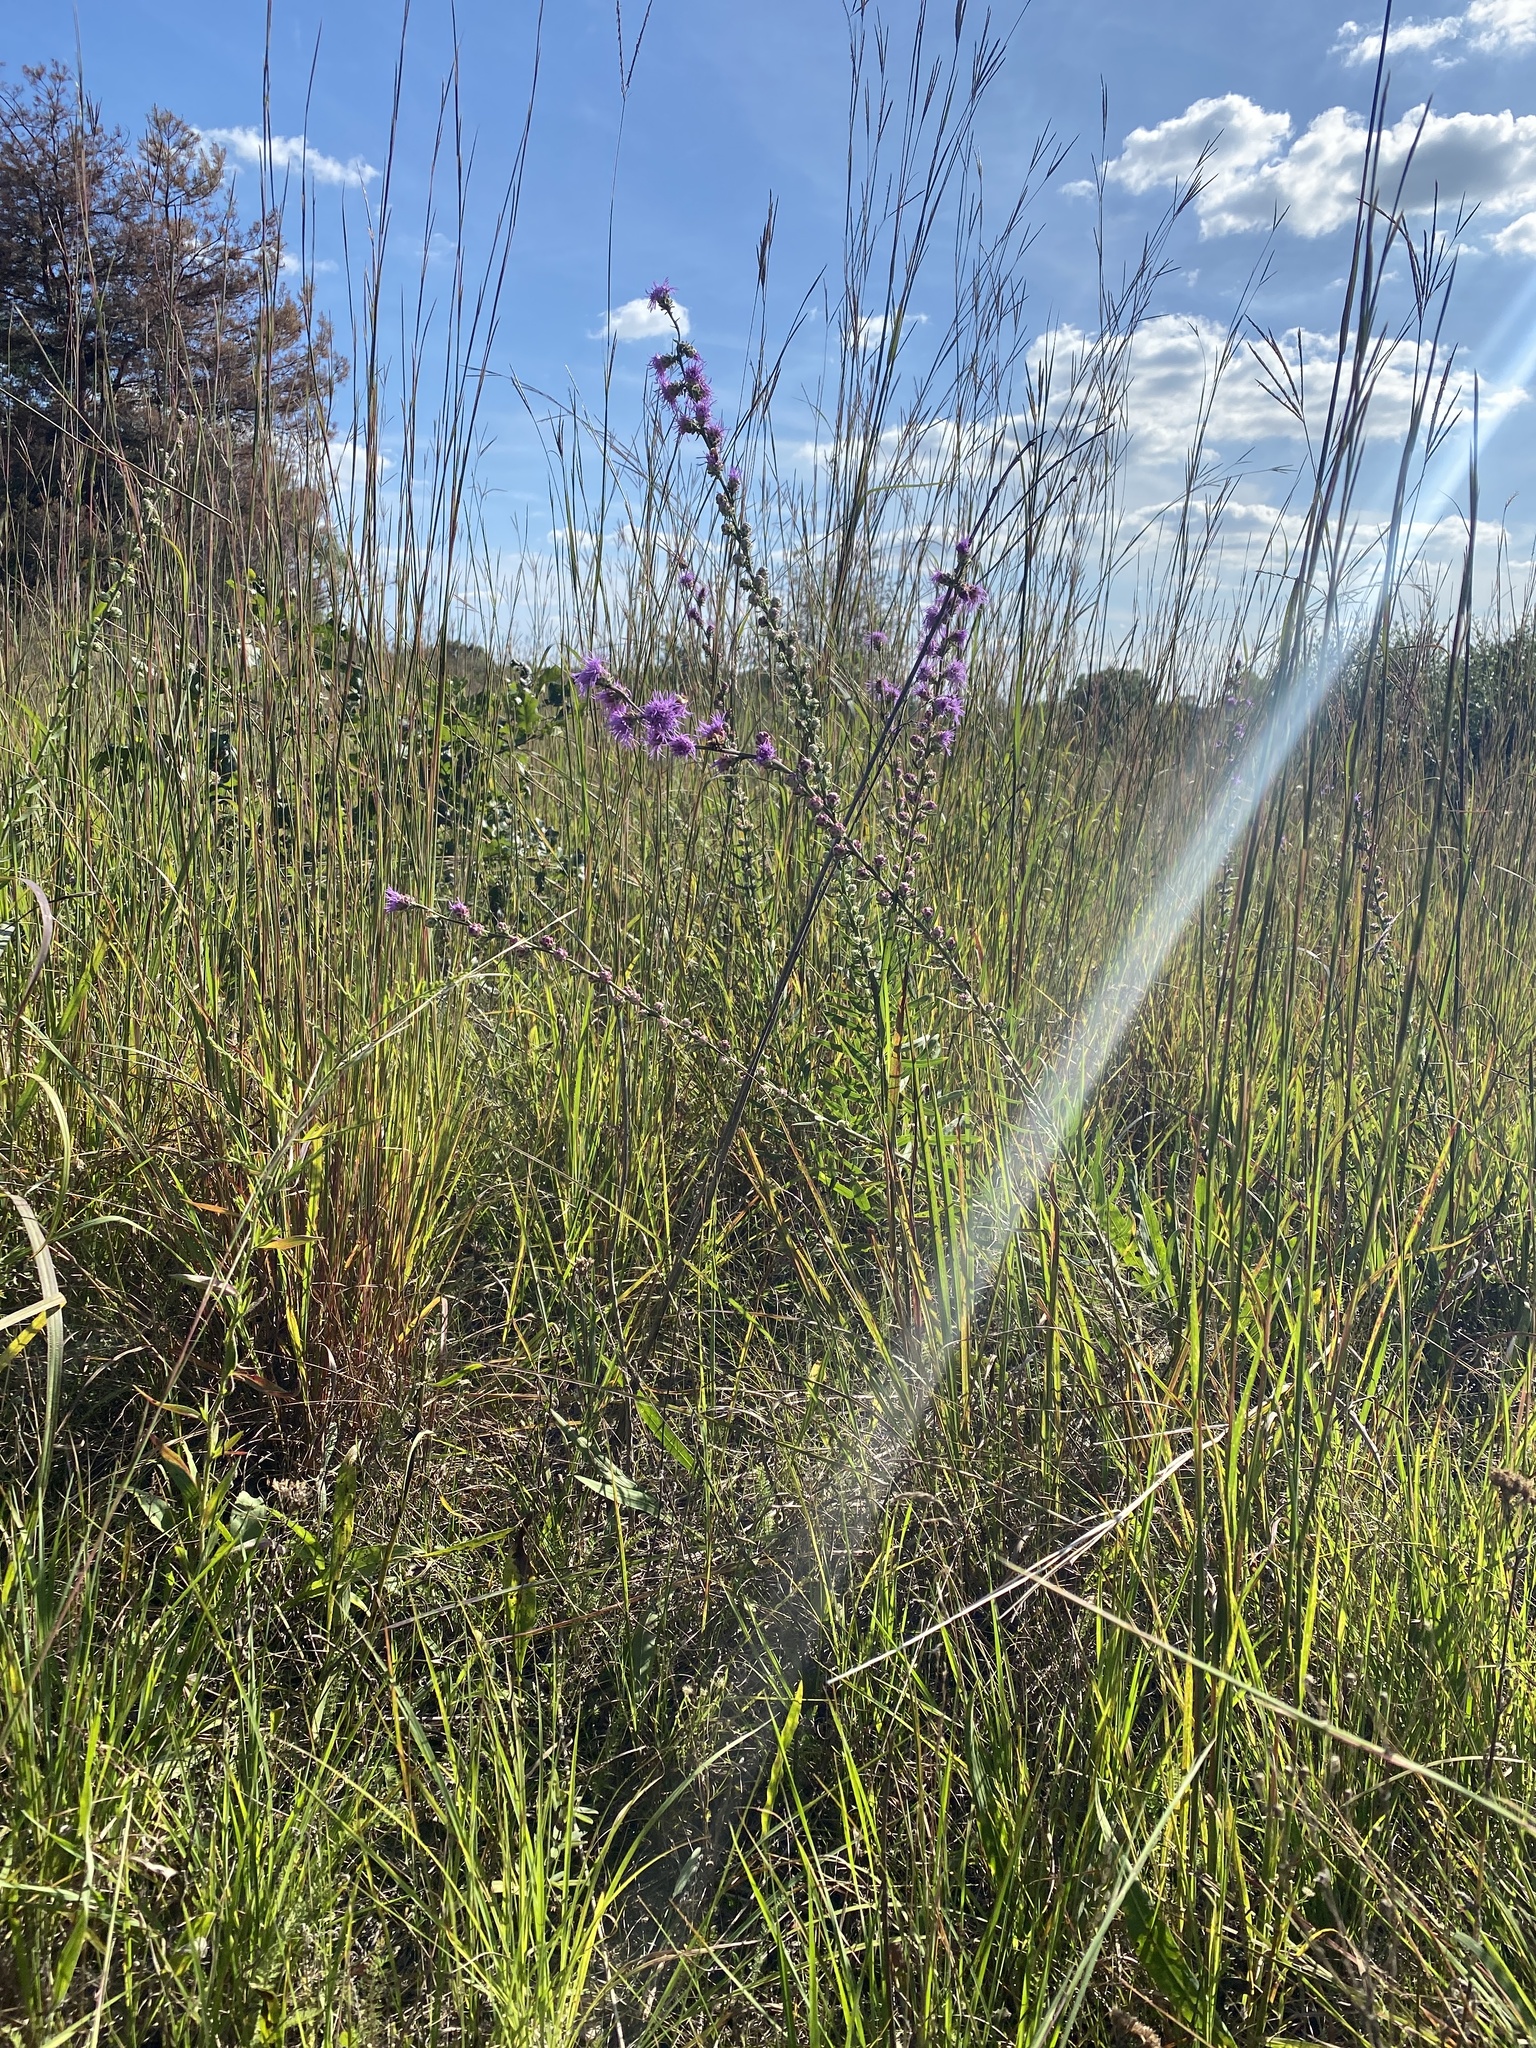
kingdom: Plantae
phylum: Tracheophyta
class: Magnoliopsida
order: Asterales
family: Asteraceae
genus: Liatris
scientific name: Liatris aspera
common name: Lacerate blazing-star
